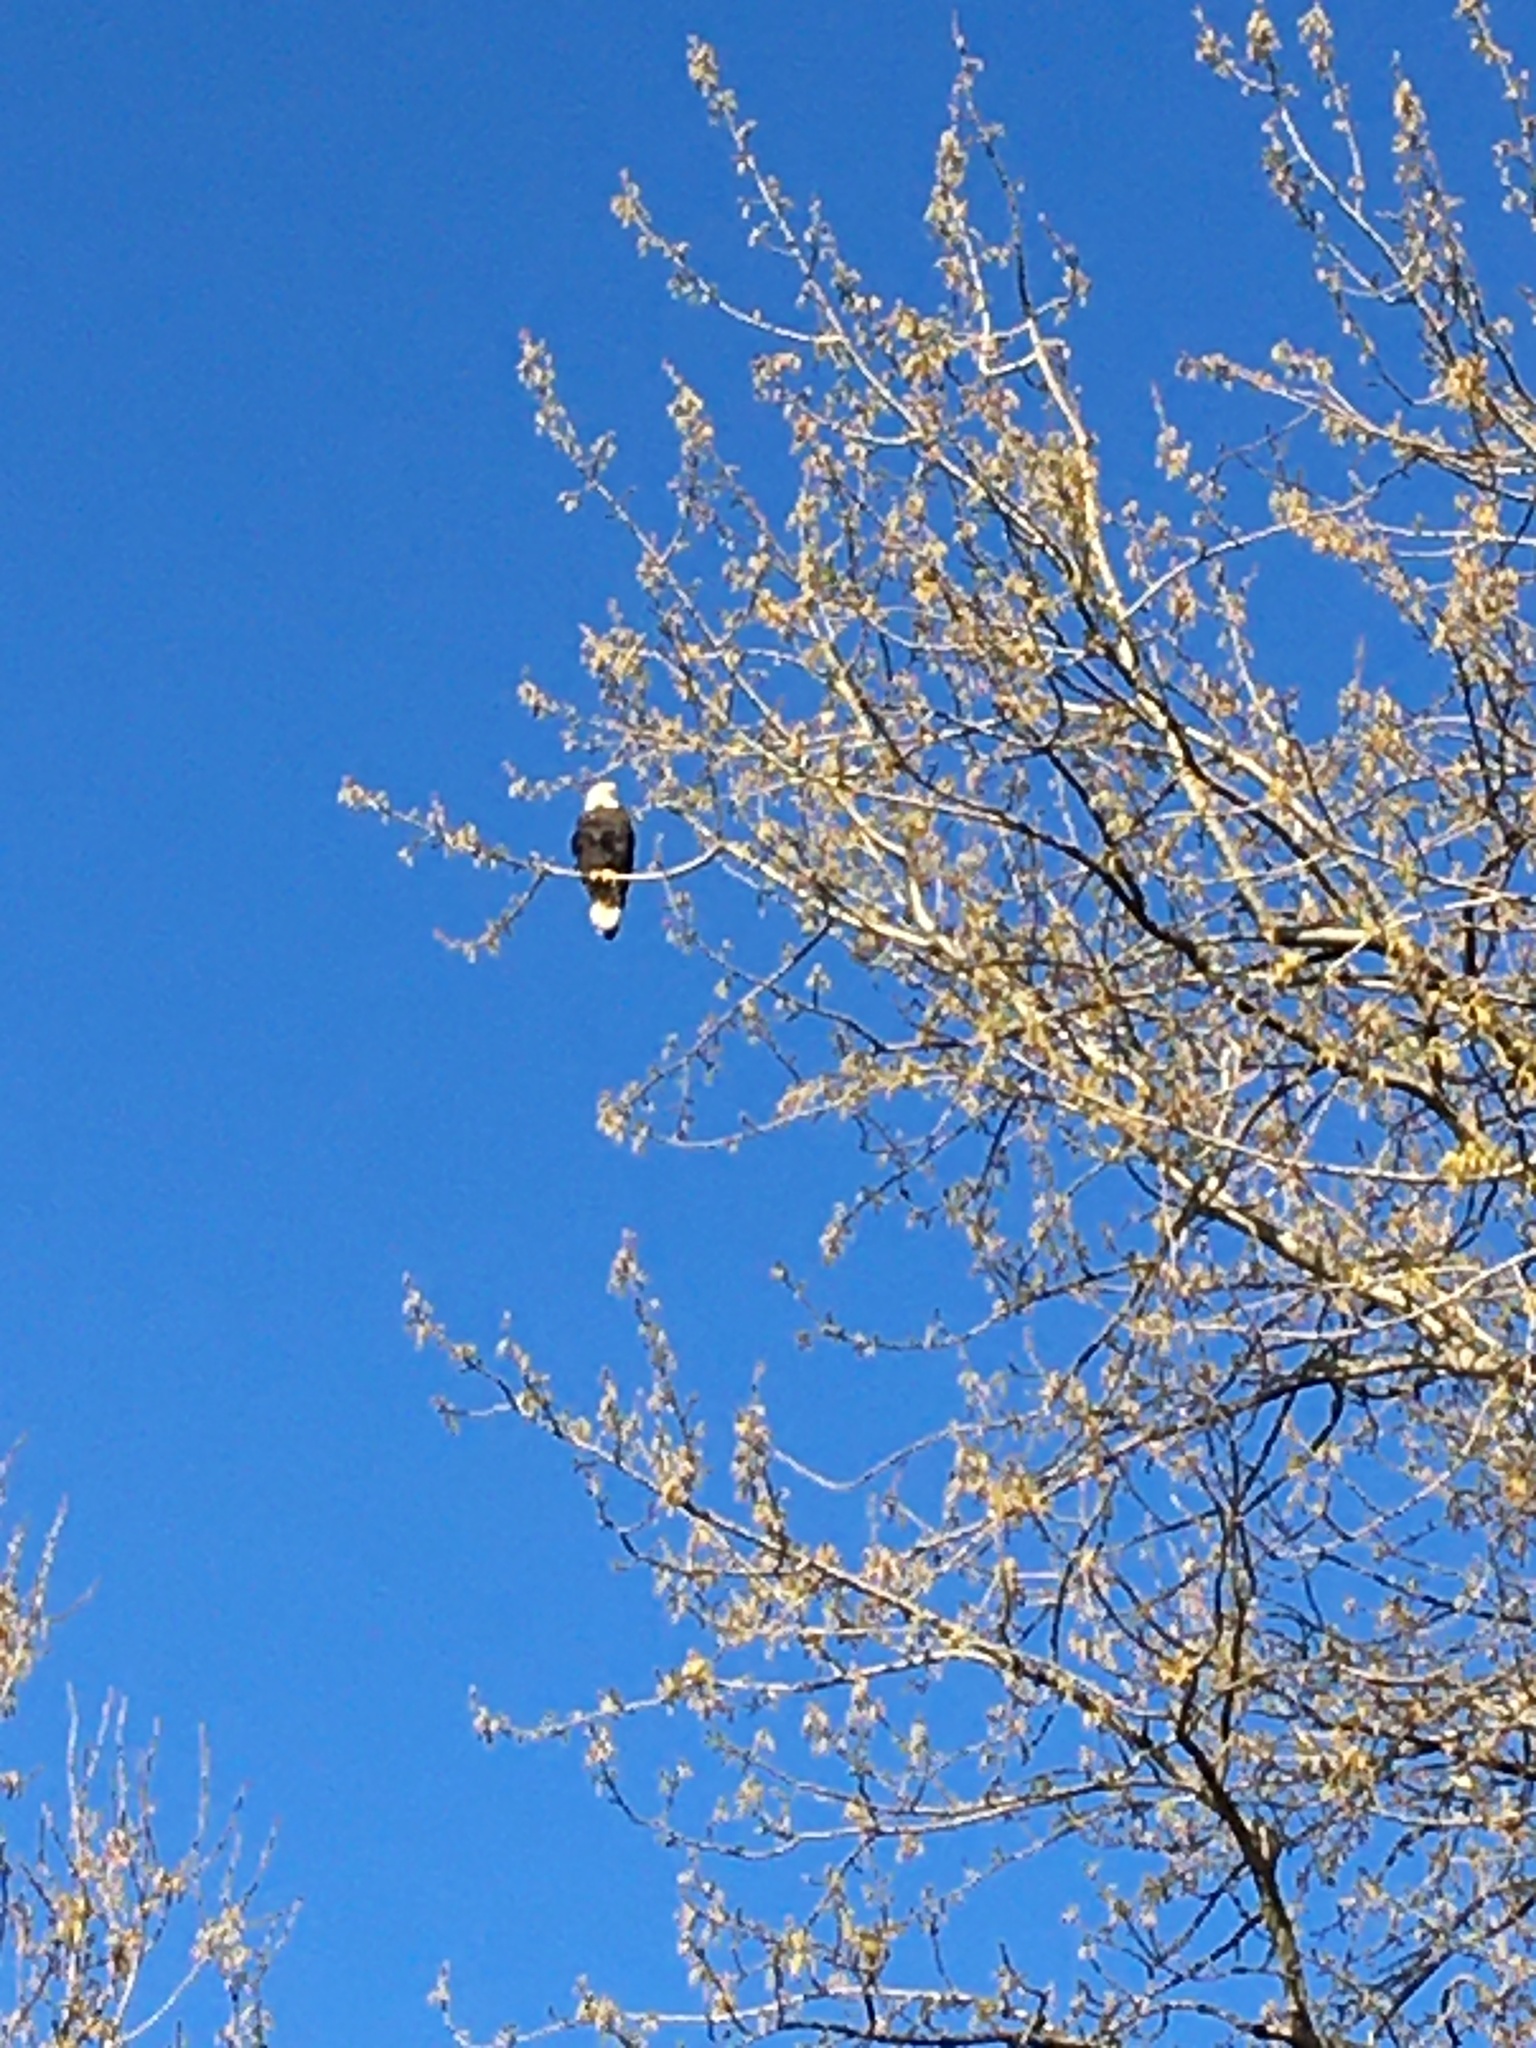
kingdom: Animalia
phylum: Chordata
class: Aves
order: Accipitriformes
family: Accipitridae
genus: Haliaeetus
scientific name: Haliaeetus leucocephalus
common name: Bald eagle
